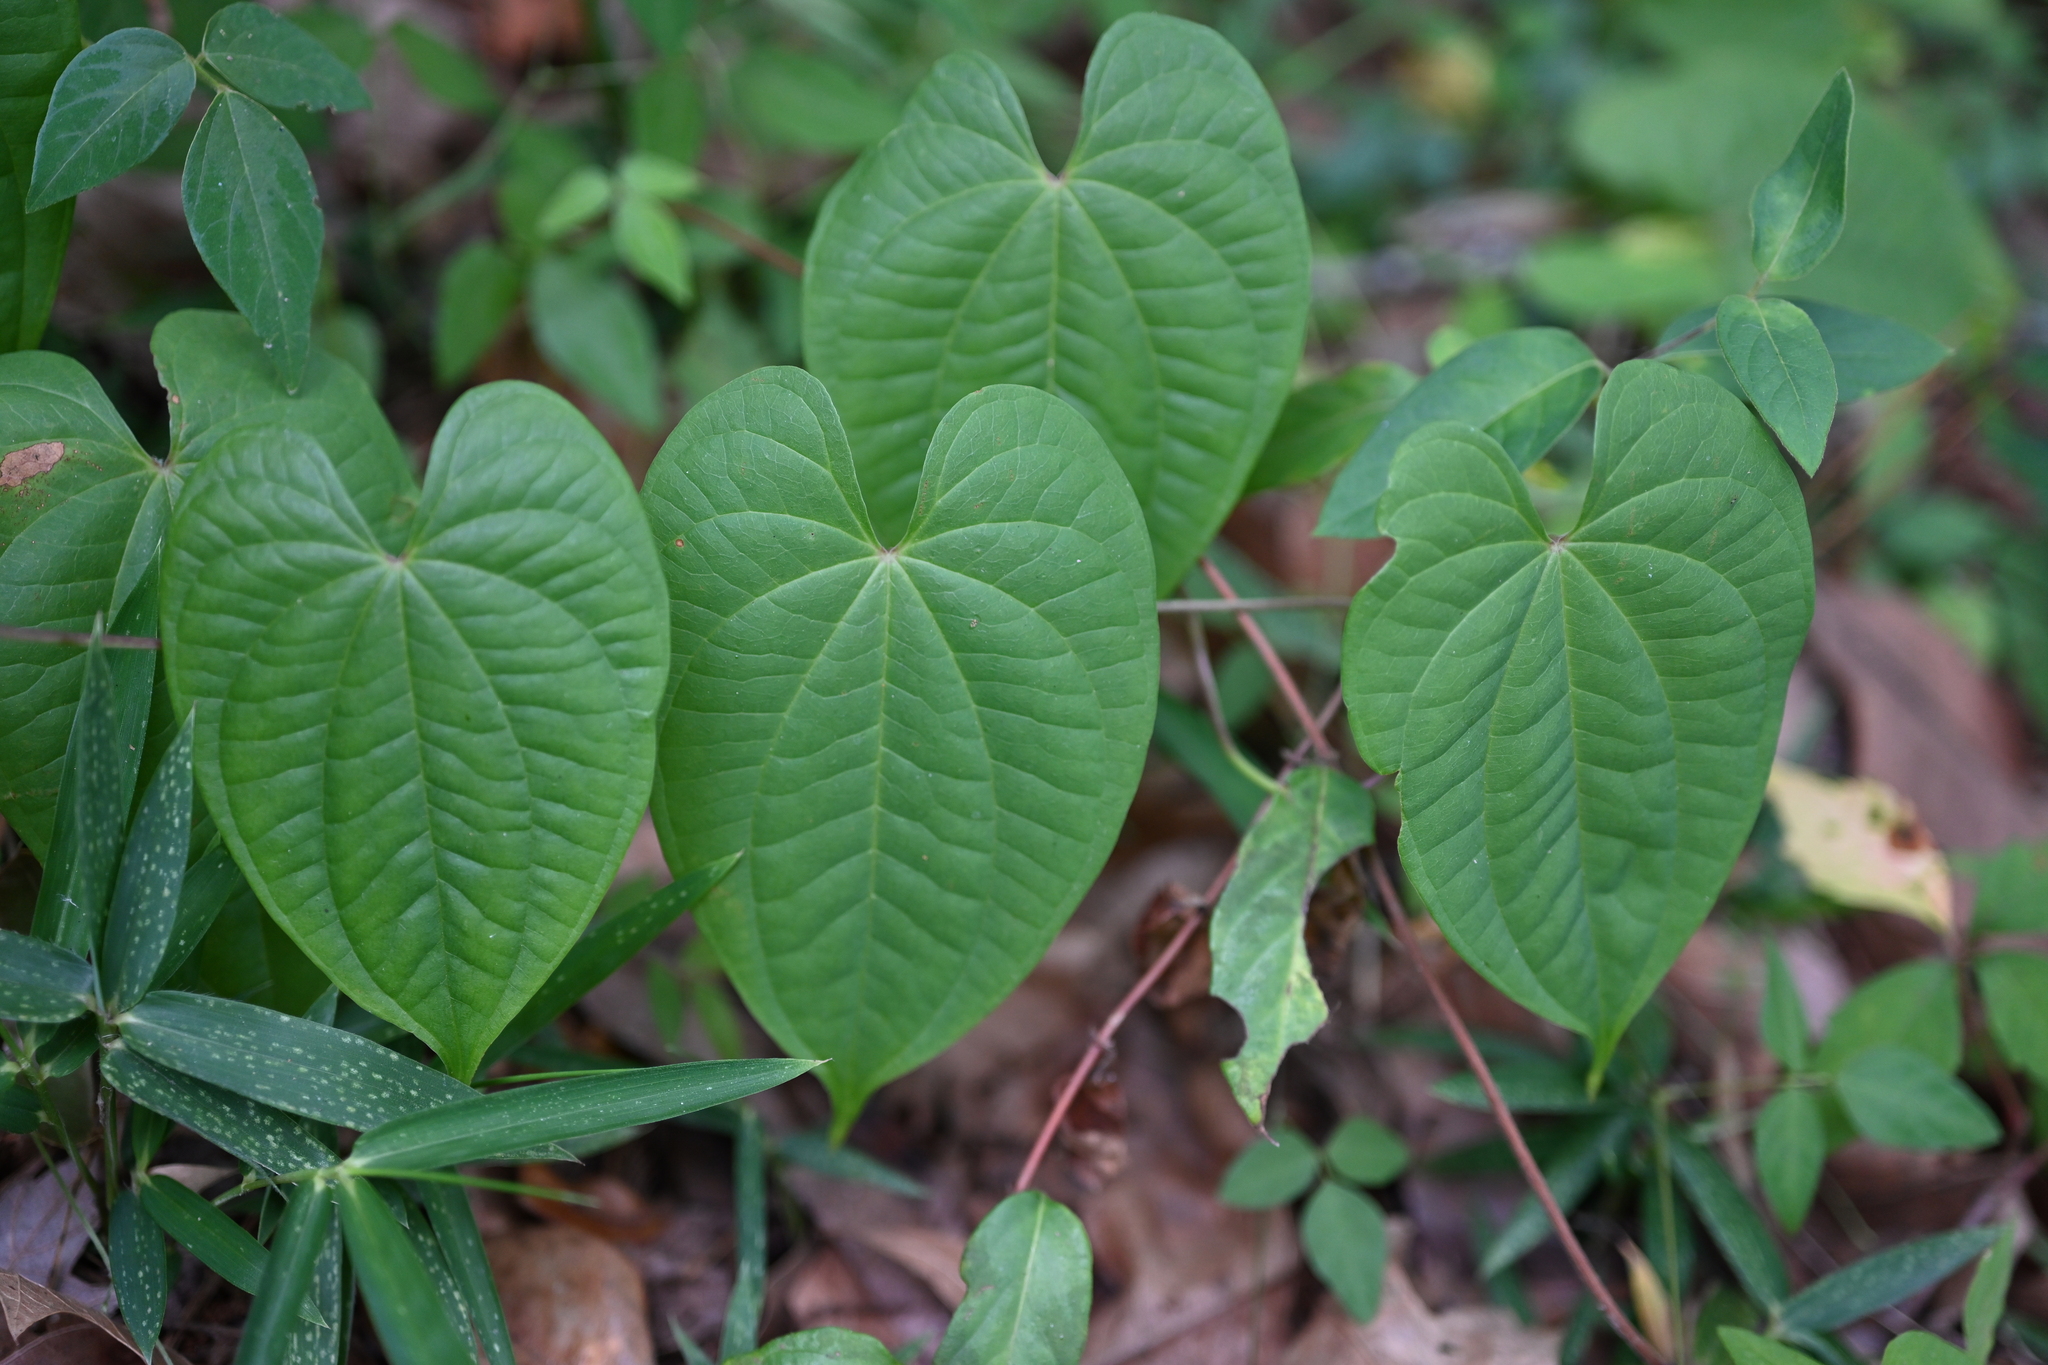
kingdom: Plantae
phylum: Tracheophyta
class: Liliopsida
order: Dioscoreales
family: Dioscoreaceae
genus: Dioscorea
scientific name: Dioscorea bulbifera
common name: Air yam
